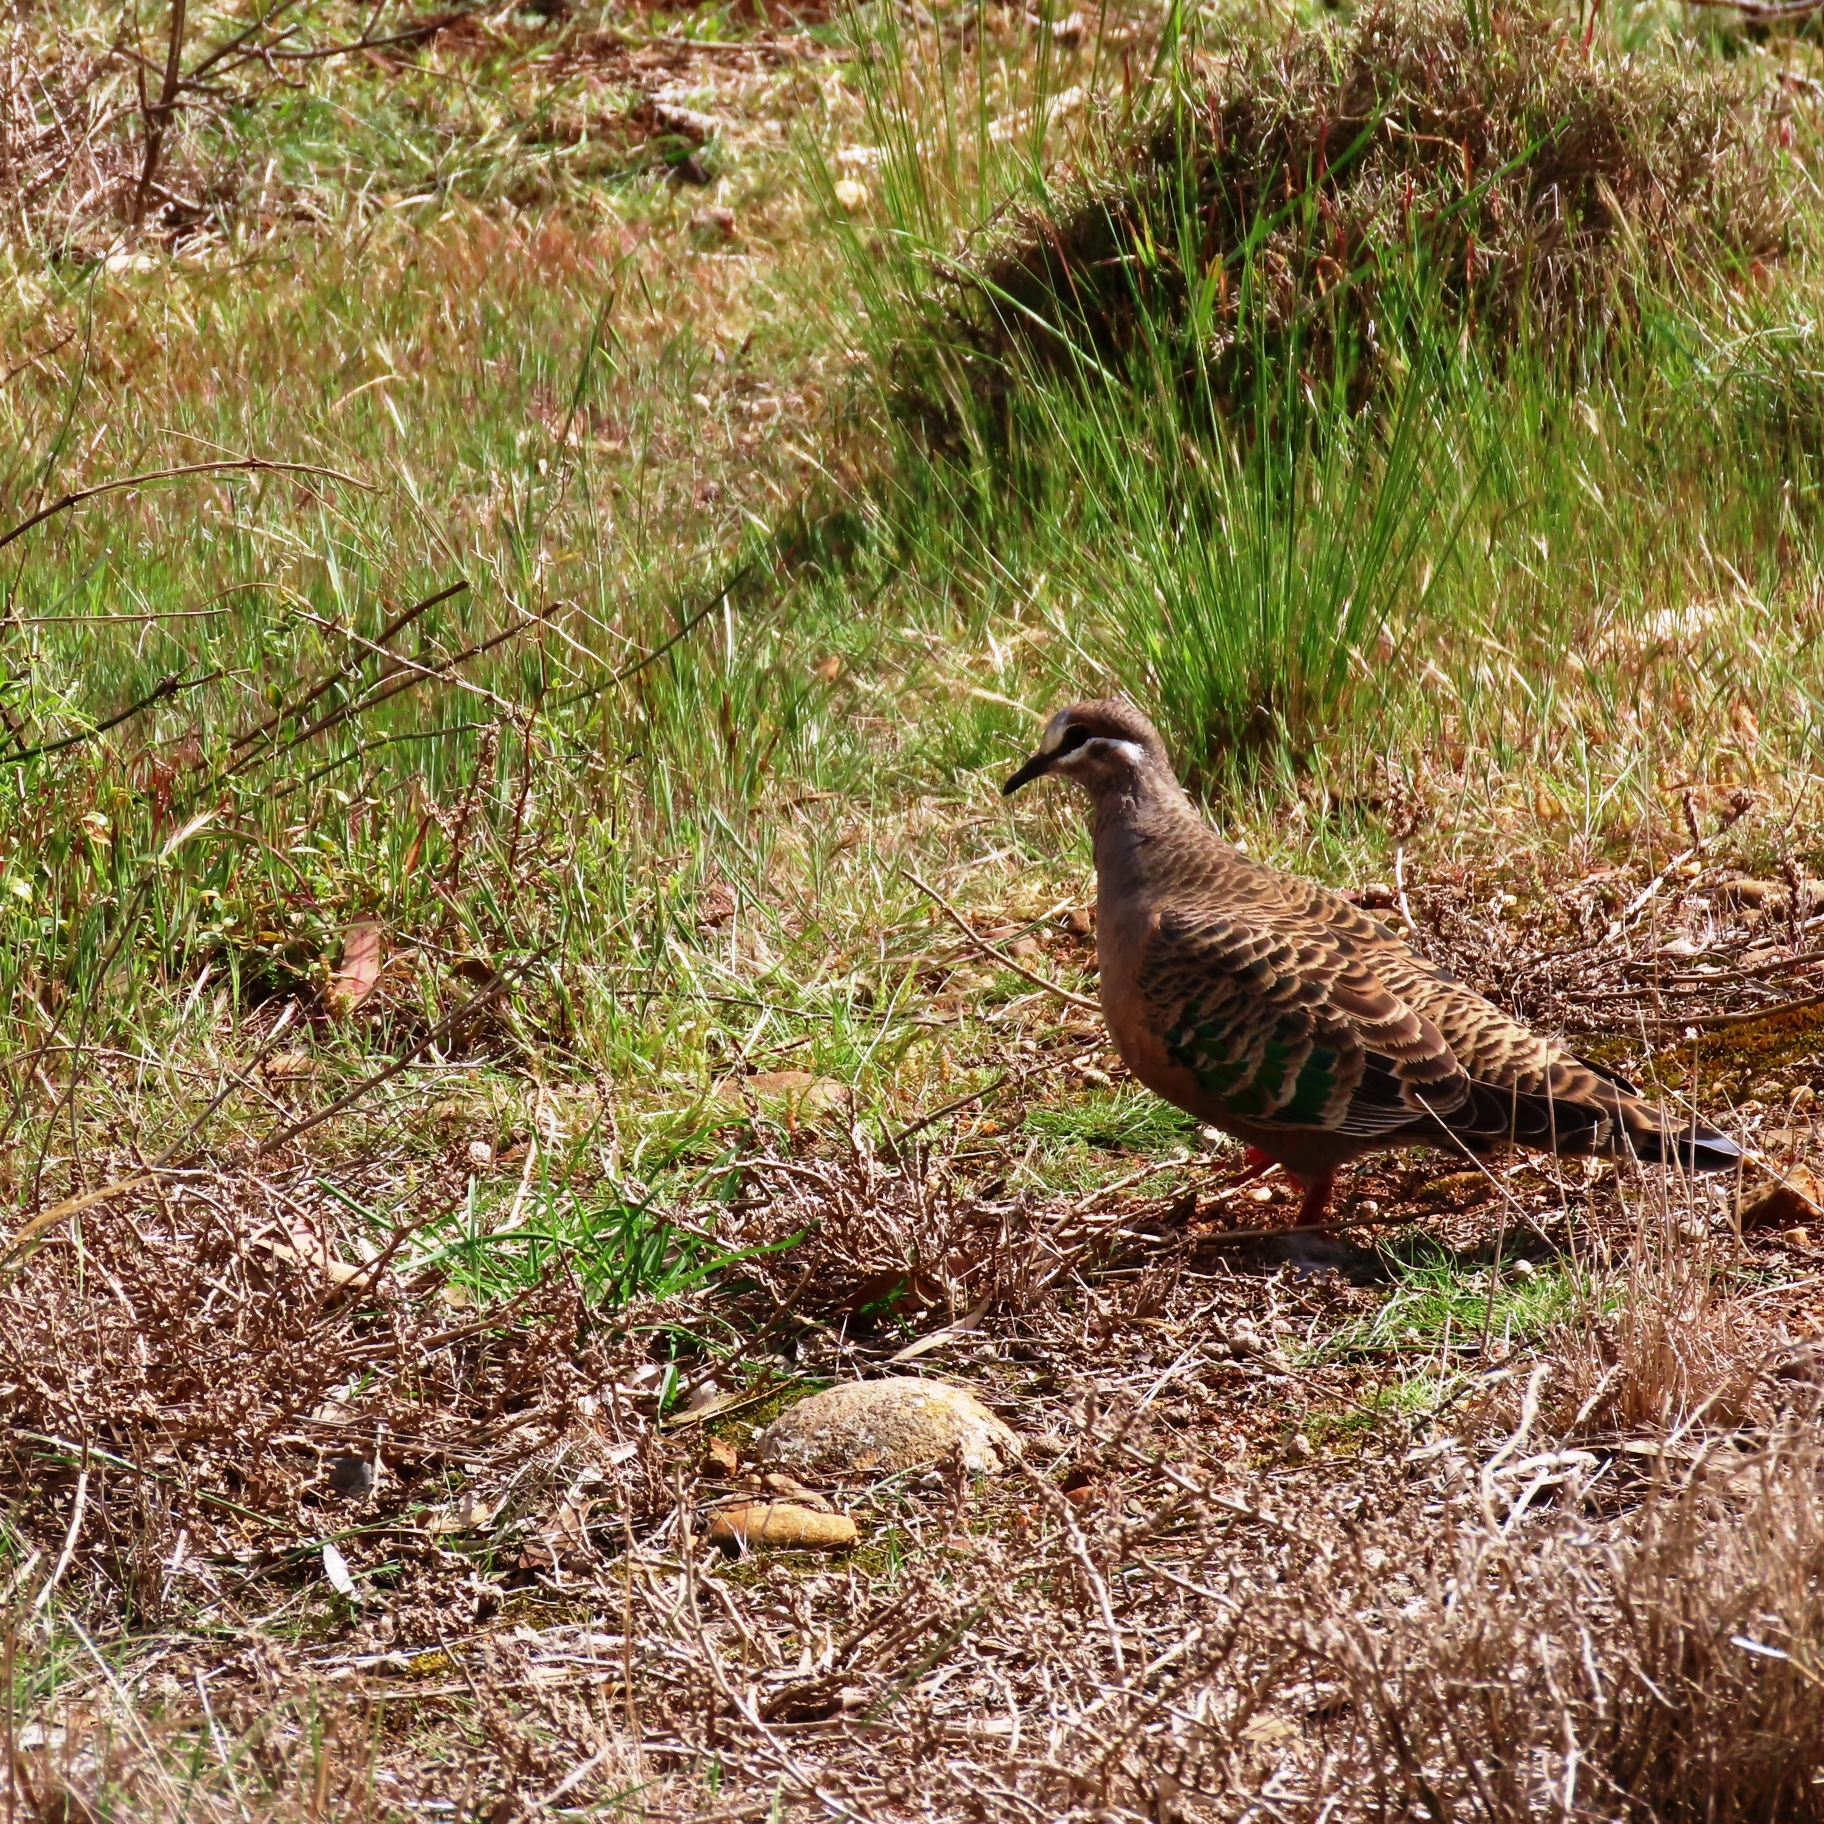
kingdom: Animalia
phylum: Chordata
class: Aves
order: Columbiformes
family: Columbidae
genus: Phaps
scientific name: Phaps chalcoptera
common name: Common bronzewing
